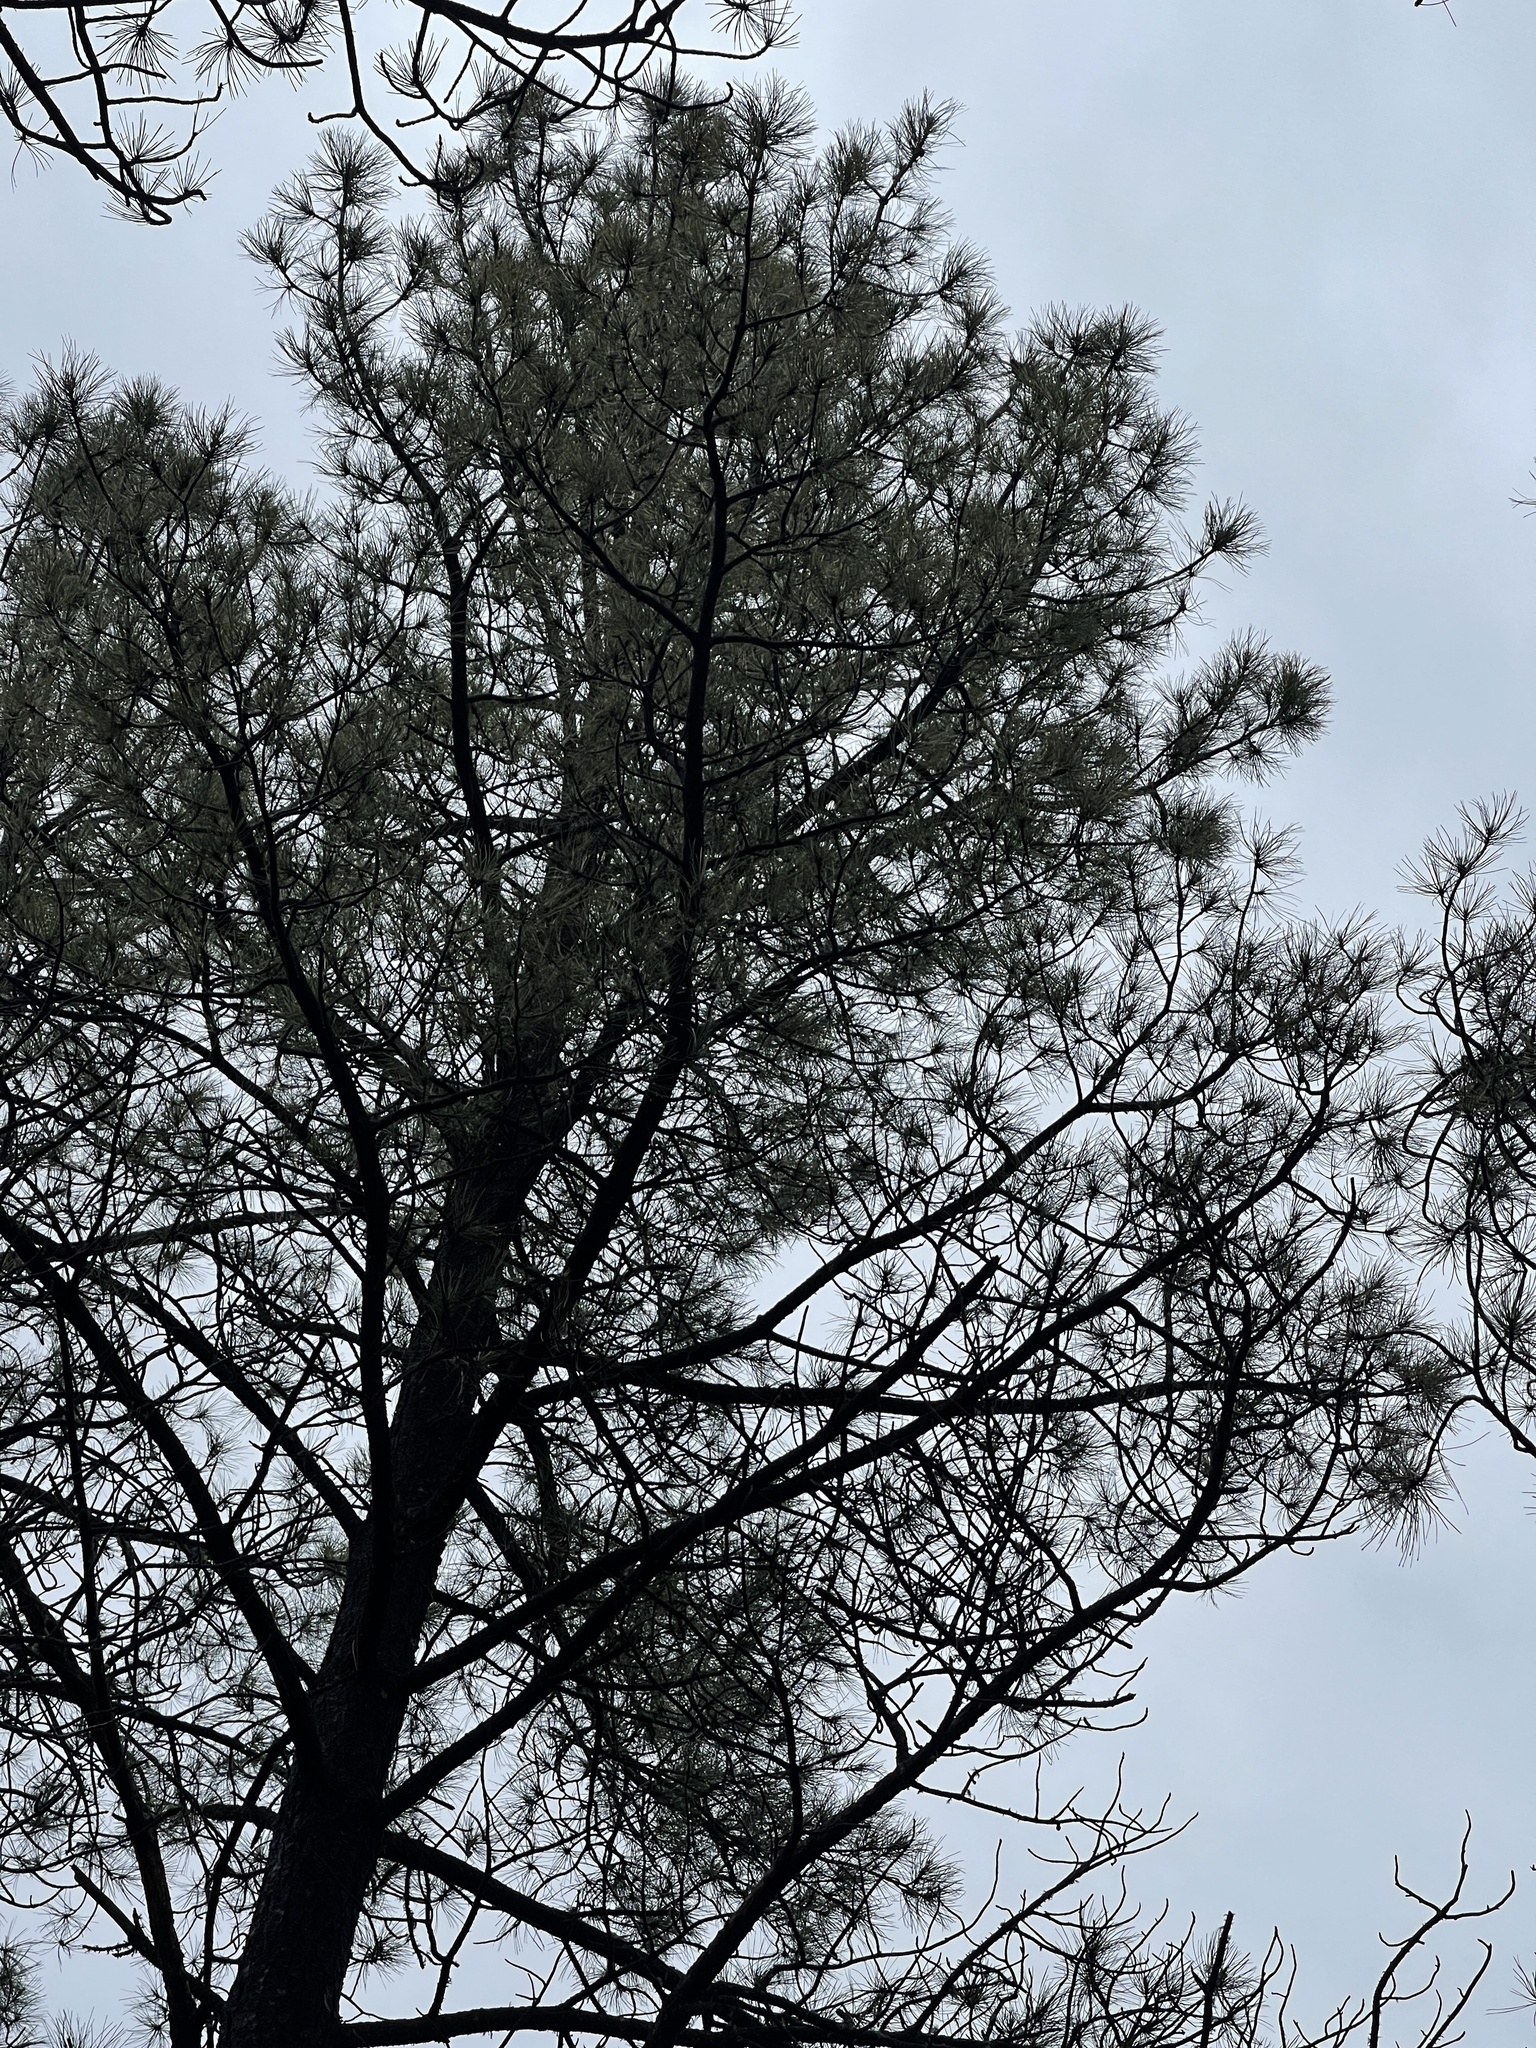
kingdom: Plantae
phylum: Tracheophyta
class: Pinopsida
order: Pinales
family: Pinaceae
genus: Pinus
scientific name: Pinus ponderosa
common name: Western yellow-pine
